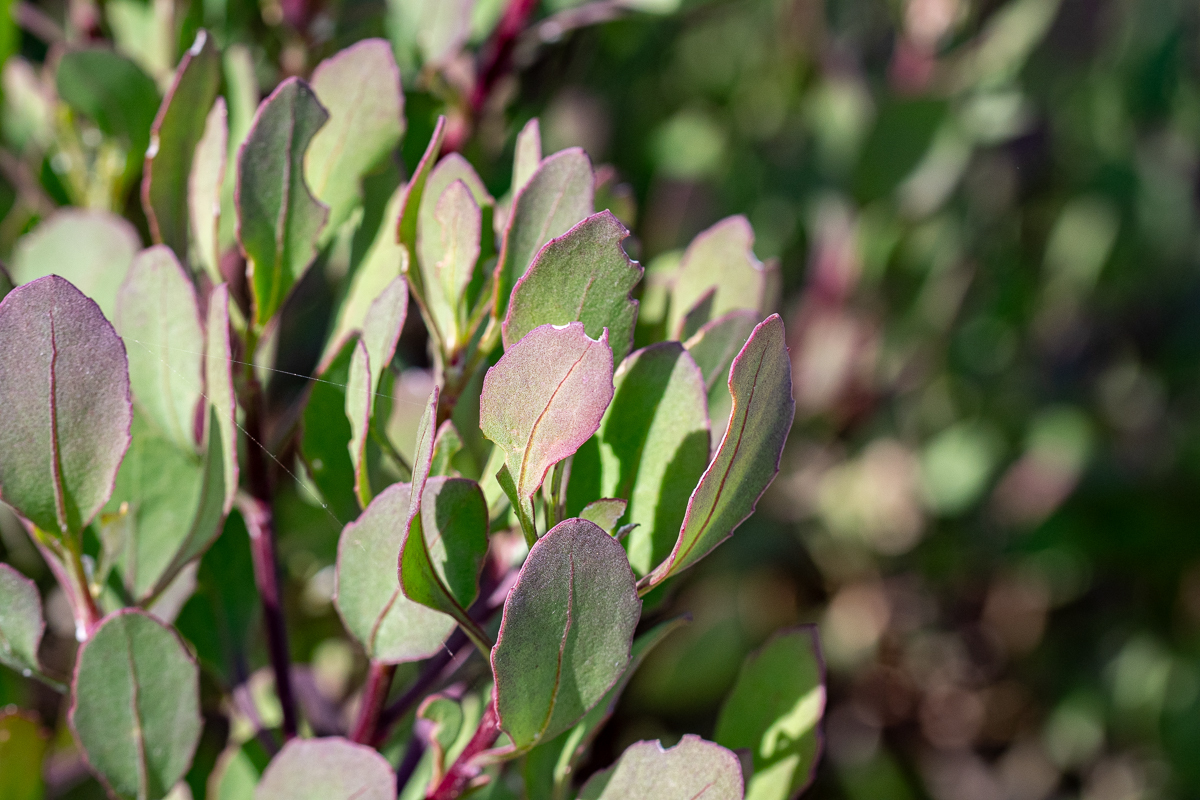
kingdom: Plantae
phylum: Tracheophyta
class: Magnoliopsida
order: Asterales
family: Asteraceae
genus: Osteospermum
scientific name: Osteospermum moniliferum
